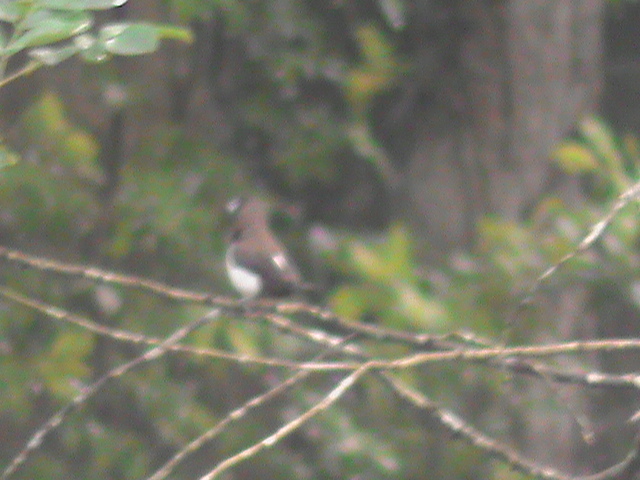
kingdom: Animalia
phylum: Chordata
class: Aves
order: Passeriformes
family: Estrildidae
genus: Lonchura
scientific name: Lonchura striata
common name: White-rumped munia
